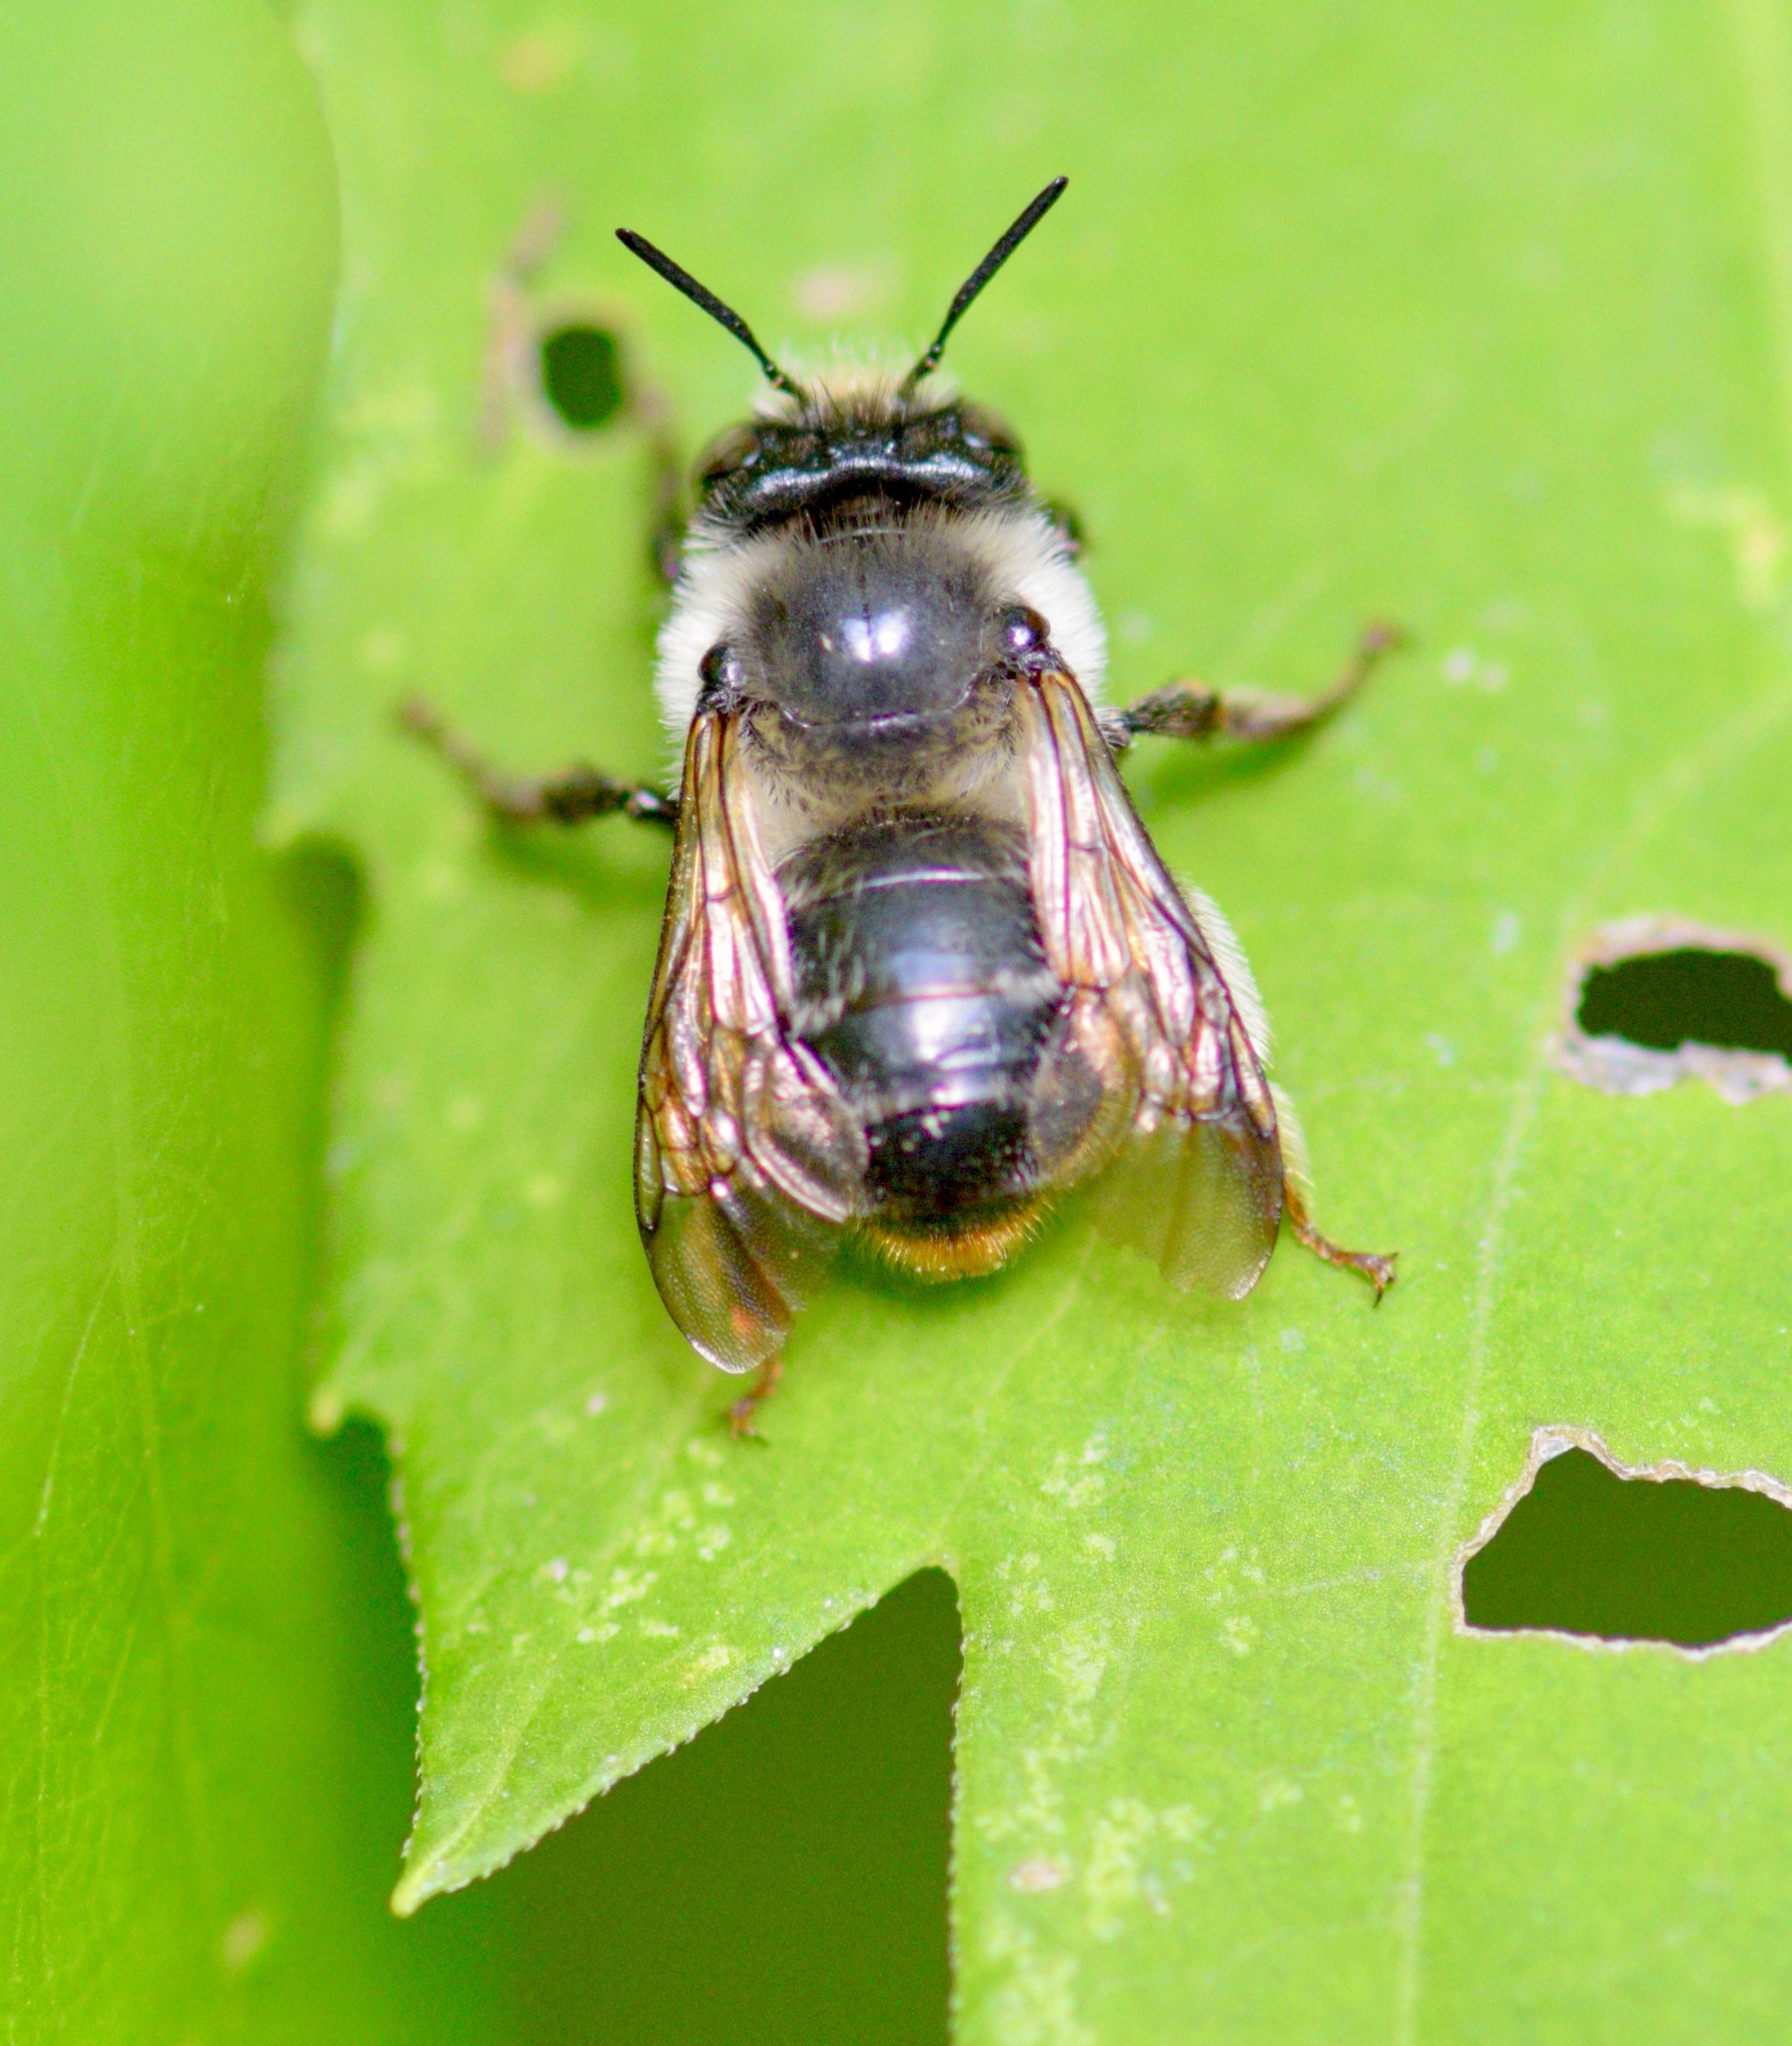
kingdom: Animalia
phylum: Arthropoda
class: Insecta
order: Hymenoptera
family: Apidae
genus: Anthophora
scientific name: Anthophora terminalis
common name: Orange-tipped wood-digger bee
